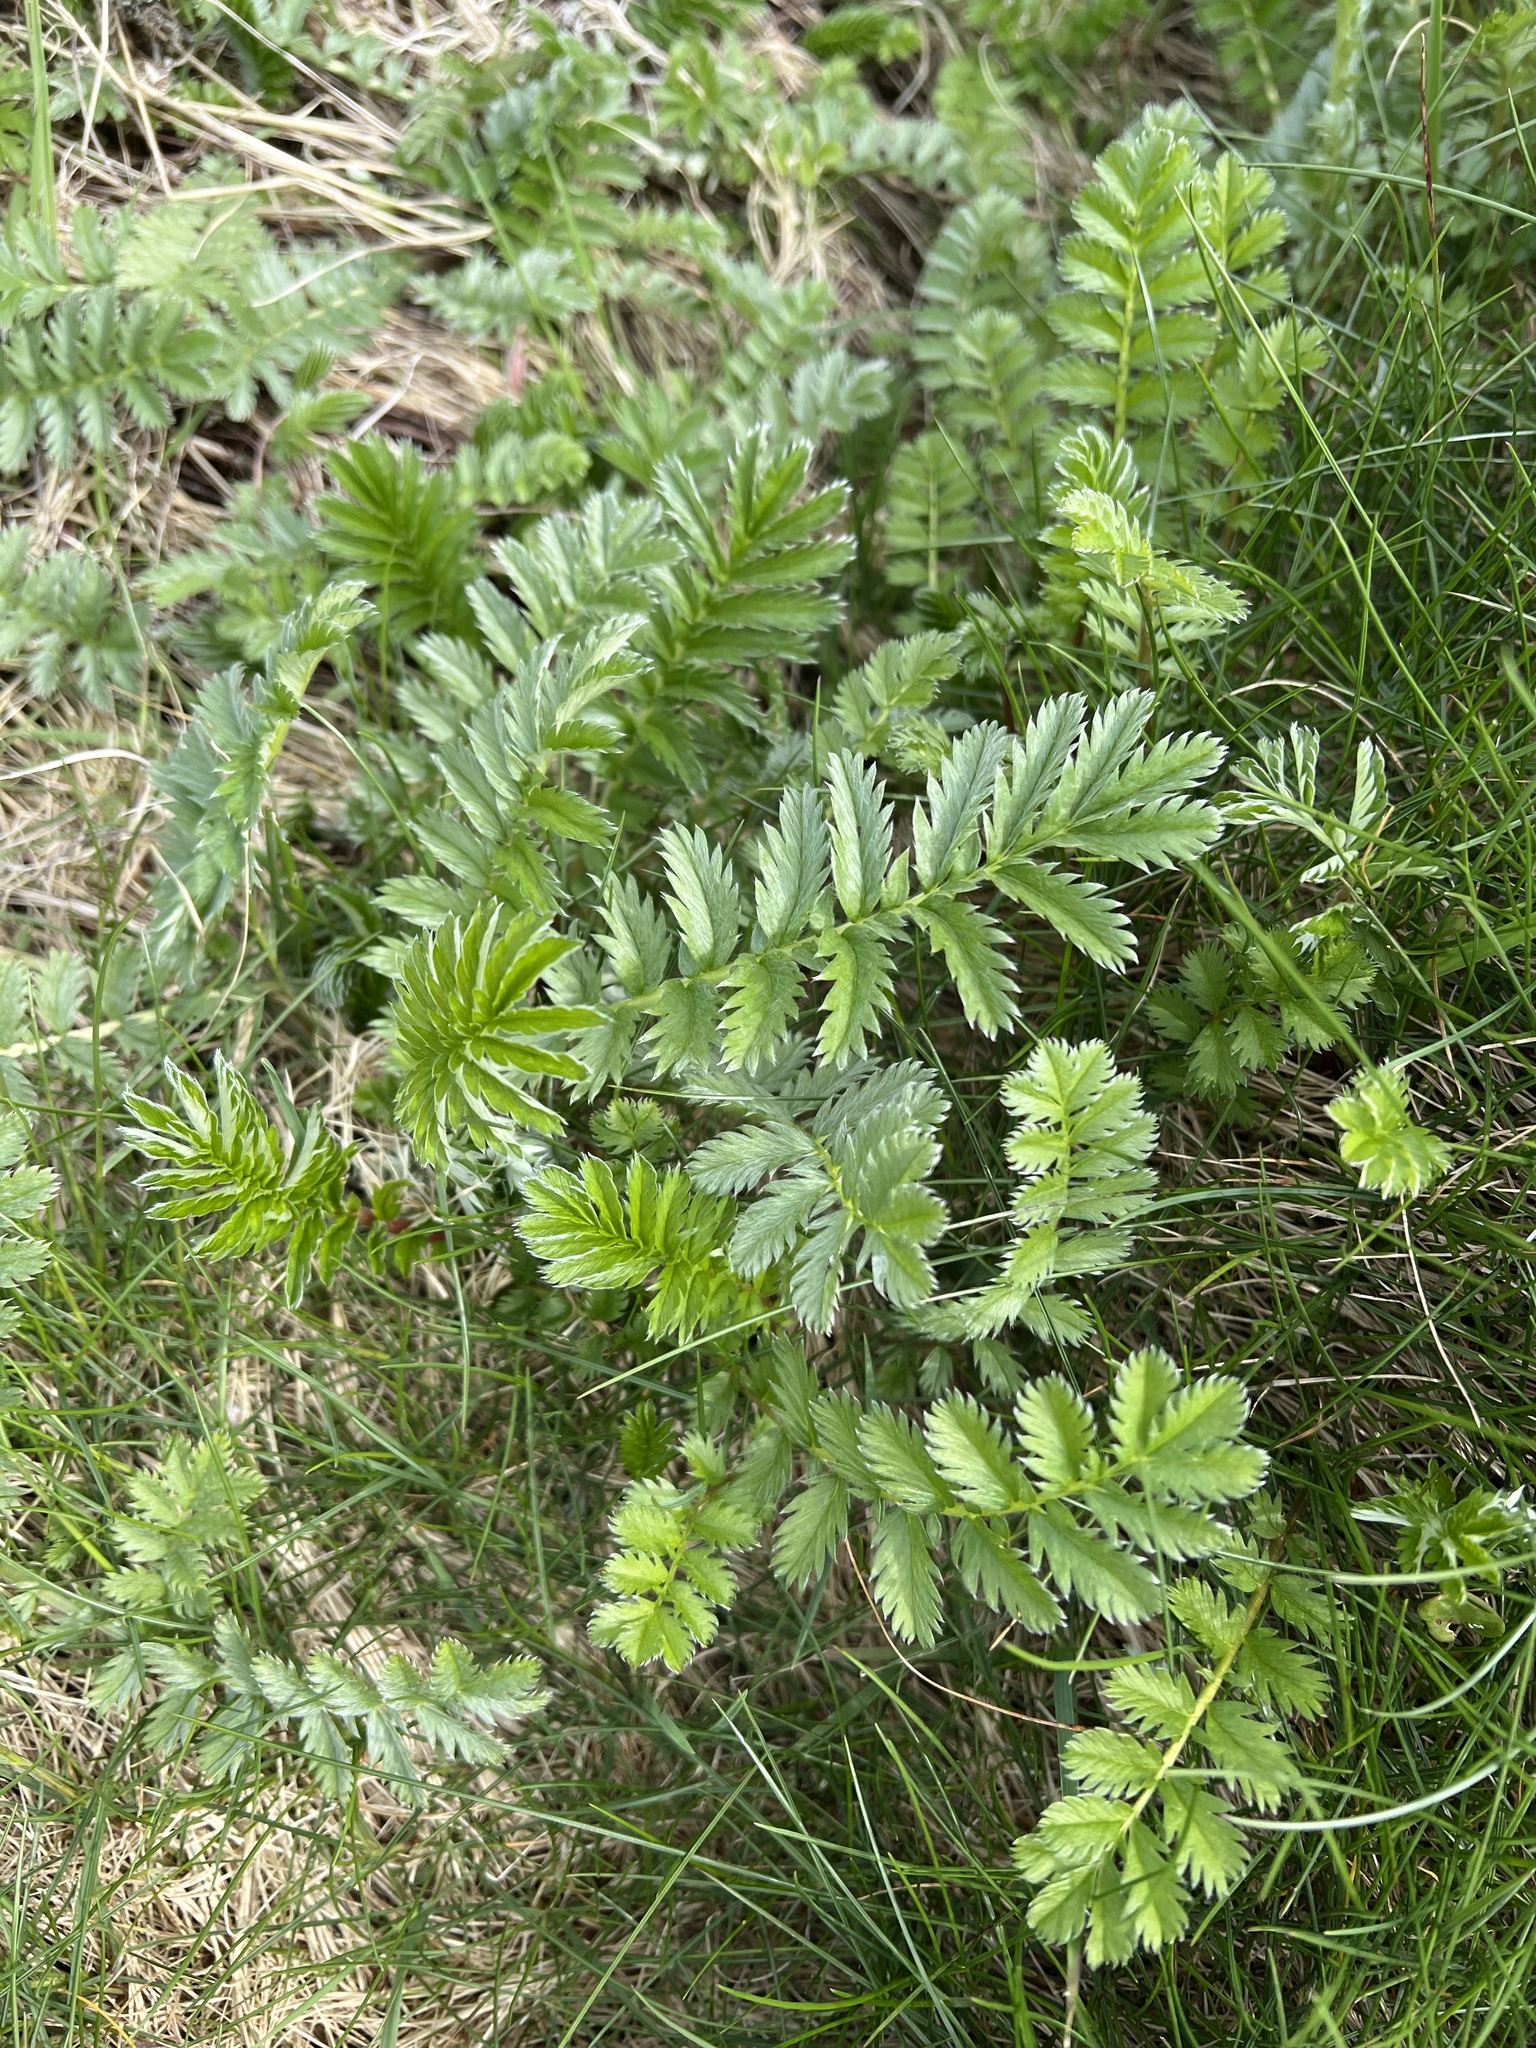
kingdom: Plantae
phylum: Tracheophyta
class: Magnoliopsida
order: Rosales
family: Rosaceae
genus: Argentina
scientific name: Argentina anserina
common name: Common silverweed
